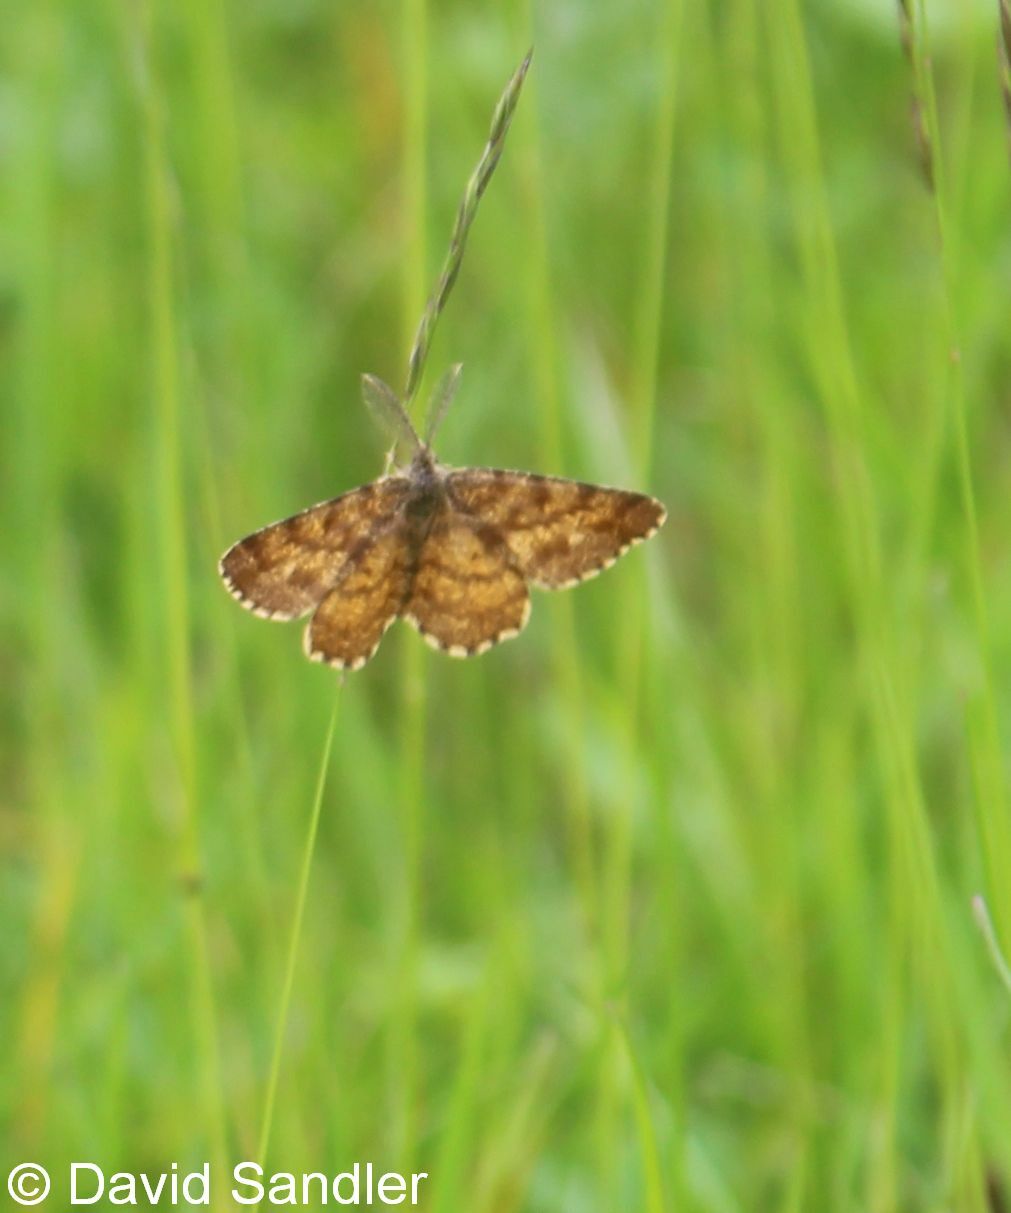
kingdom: Animalia
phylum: Arthropoda
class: Insecta
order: Lepidoptera
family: Geometridae
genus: Ematurga
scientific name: Ematurga atomaria
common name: Common heath
